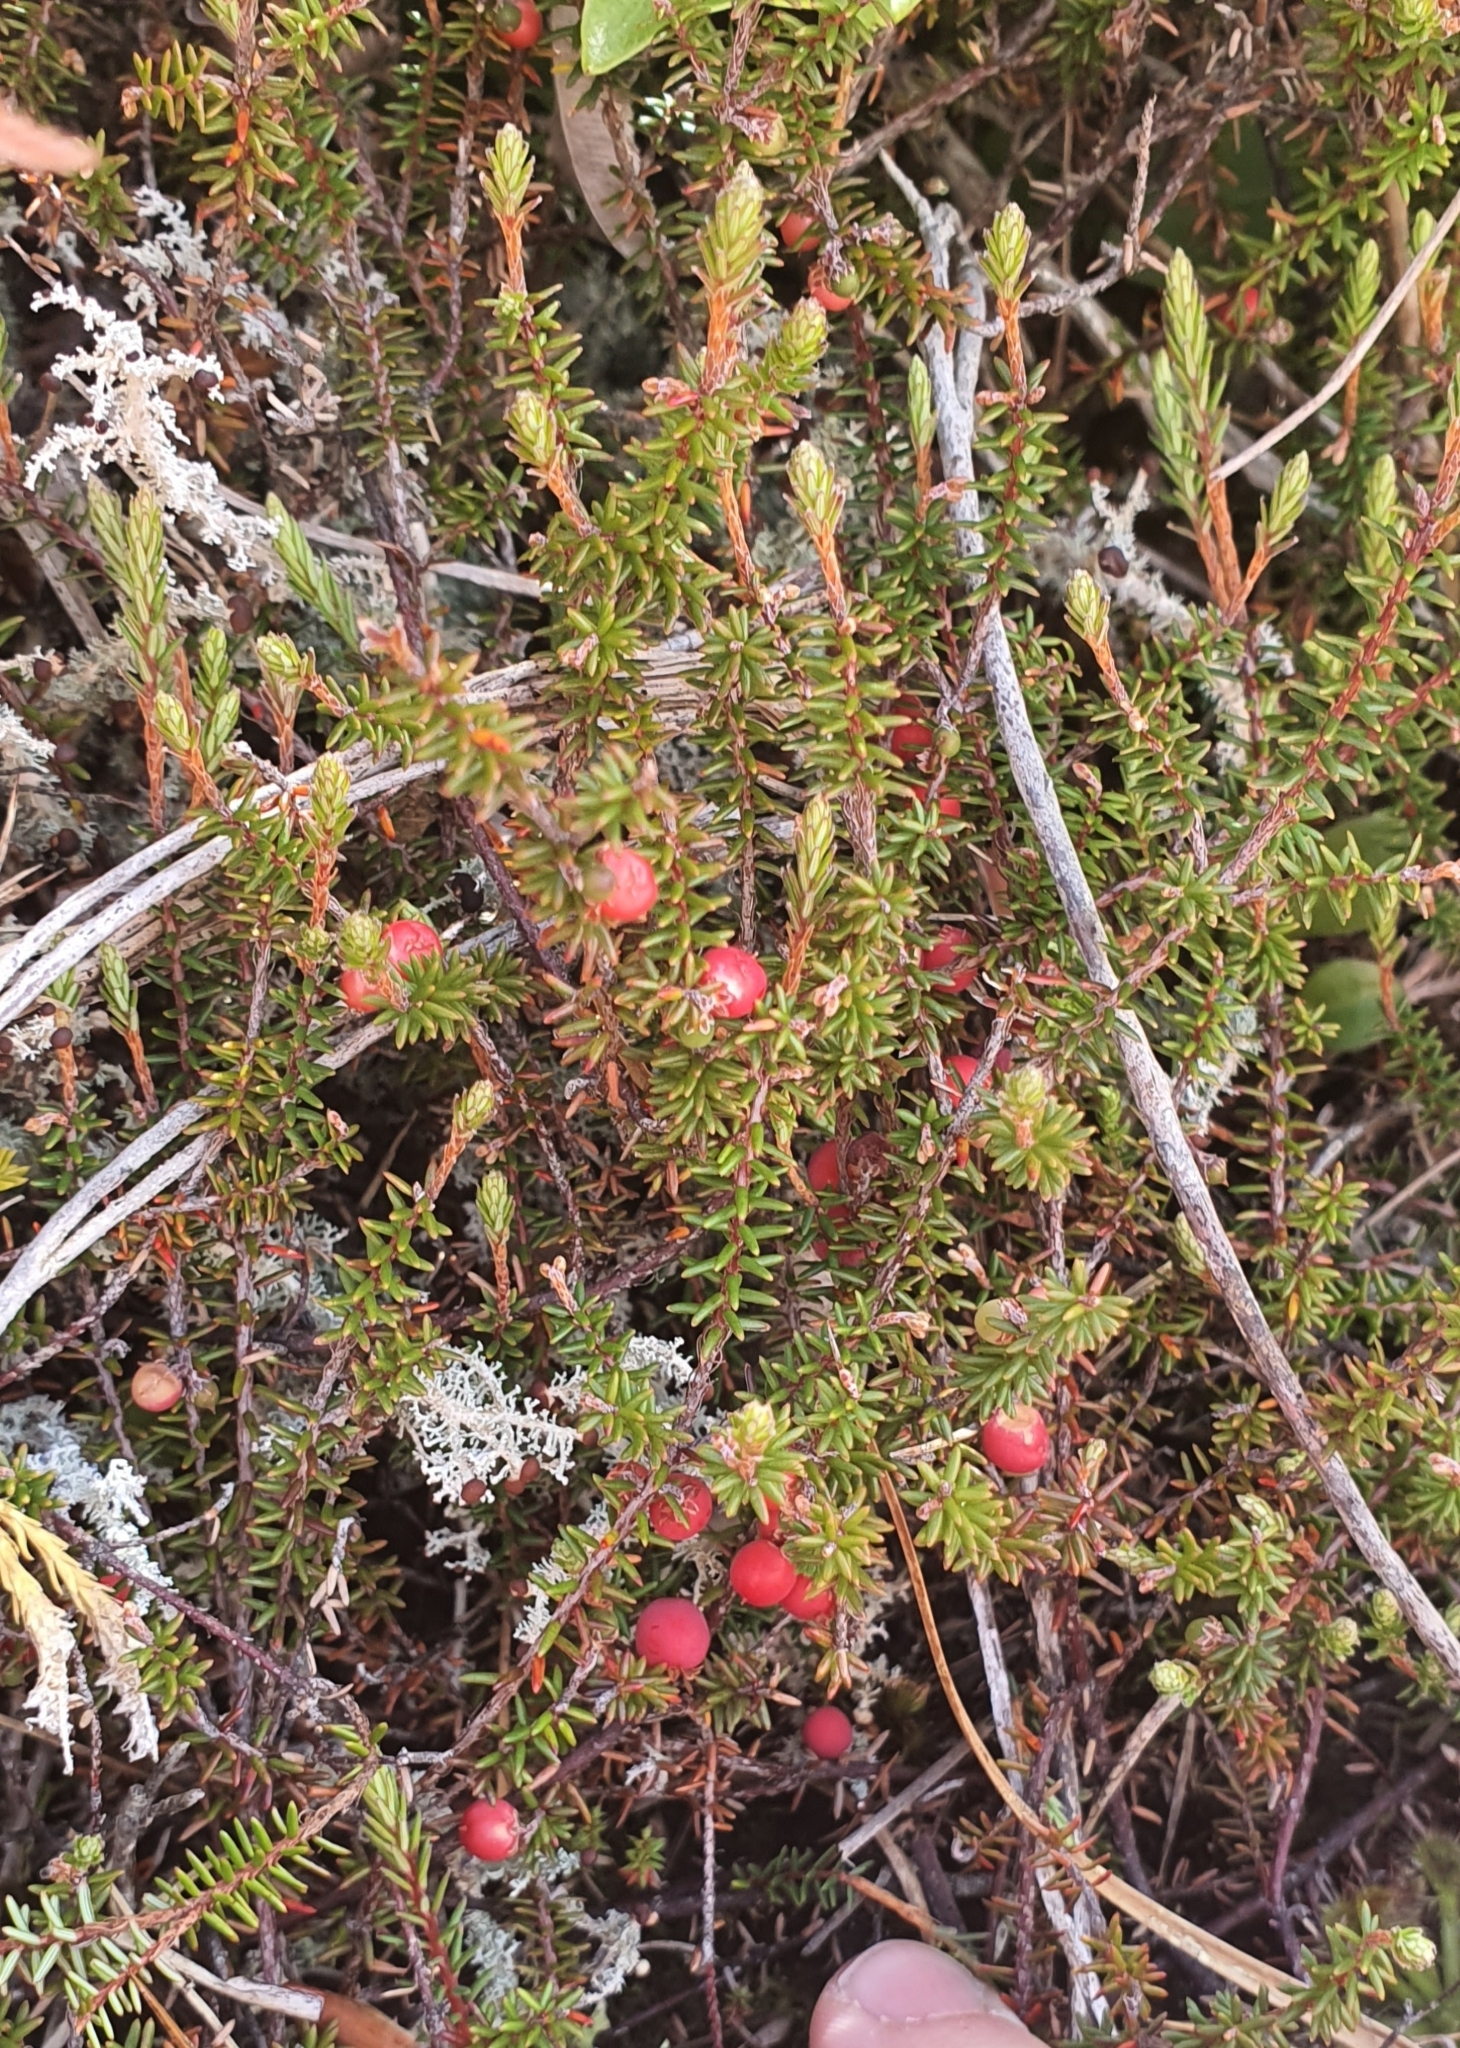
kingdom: Plantae
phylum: Tracheophyta
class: Magnoliopsida
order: Ericales
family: Ericaceae
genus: Androstoma
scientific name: Androstoma empetrifolia
